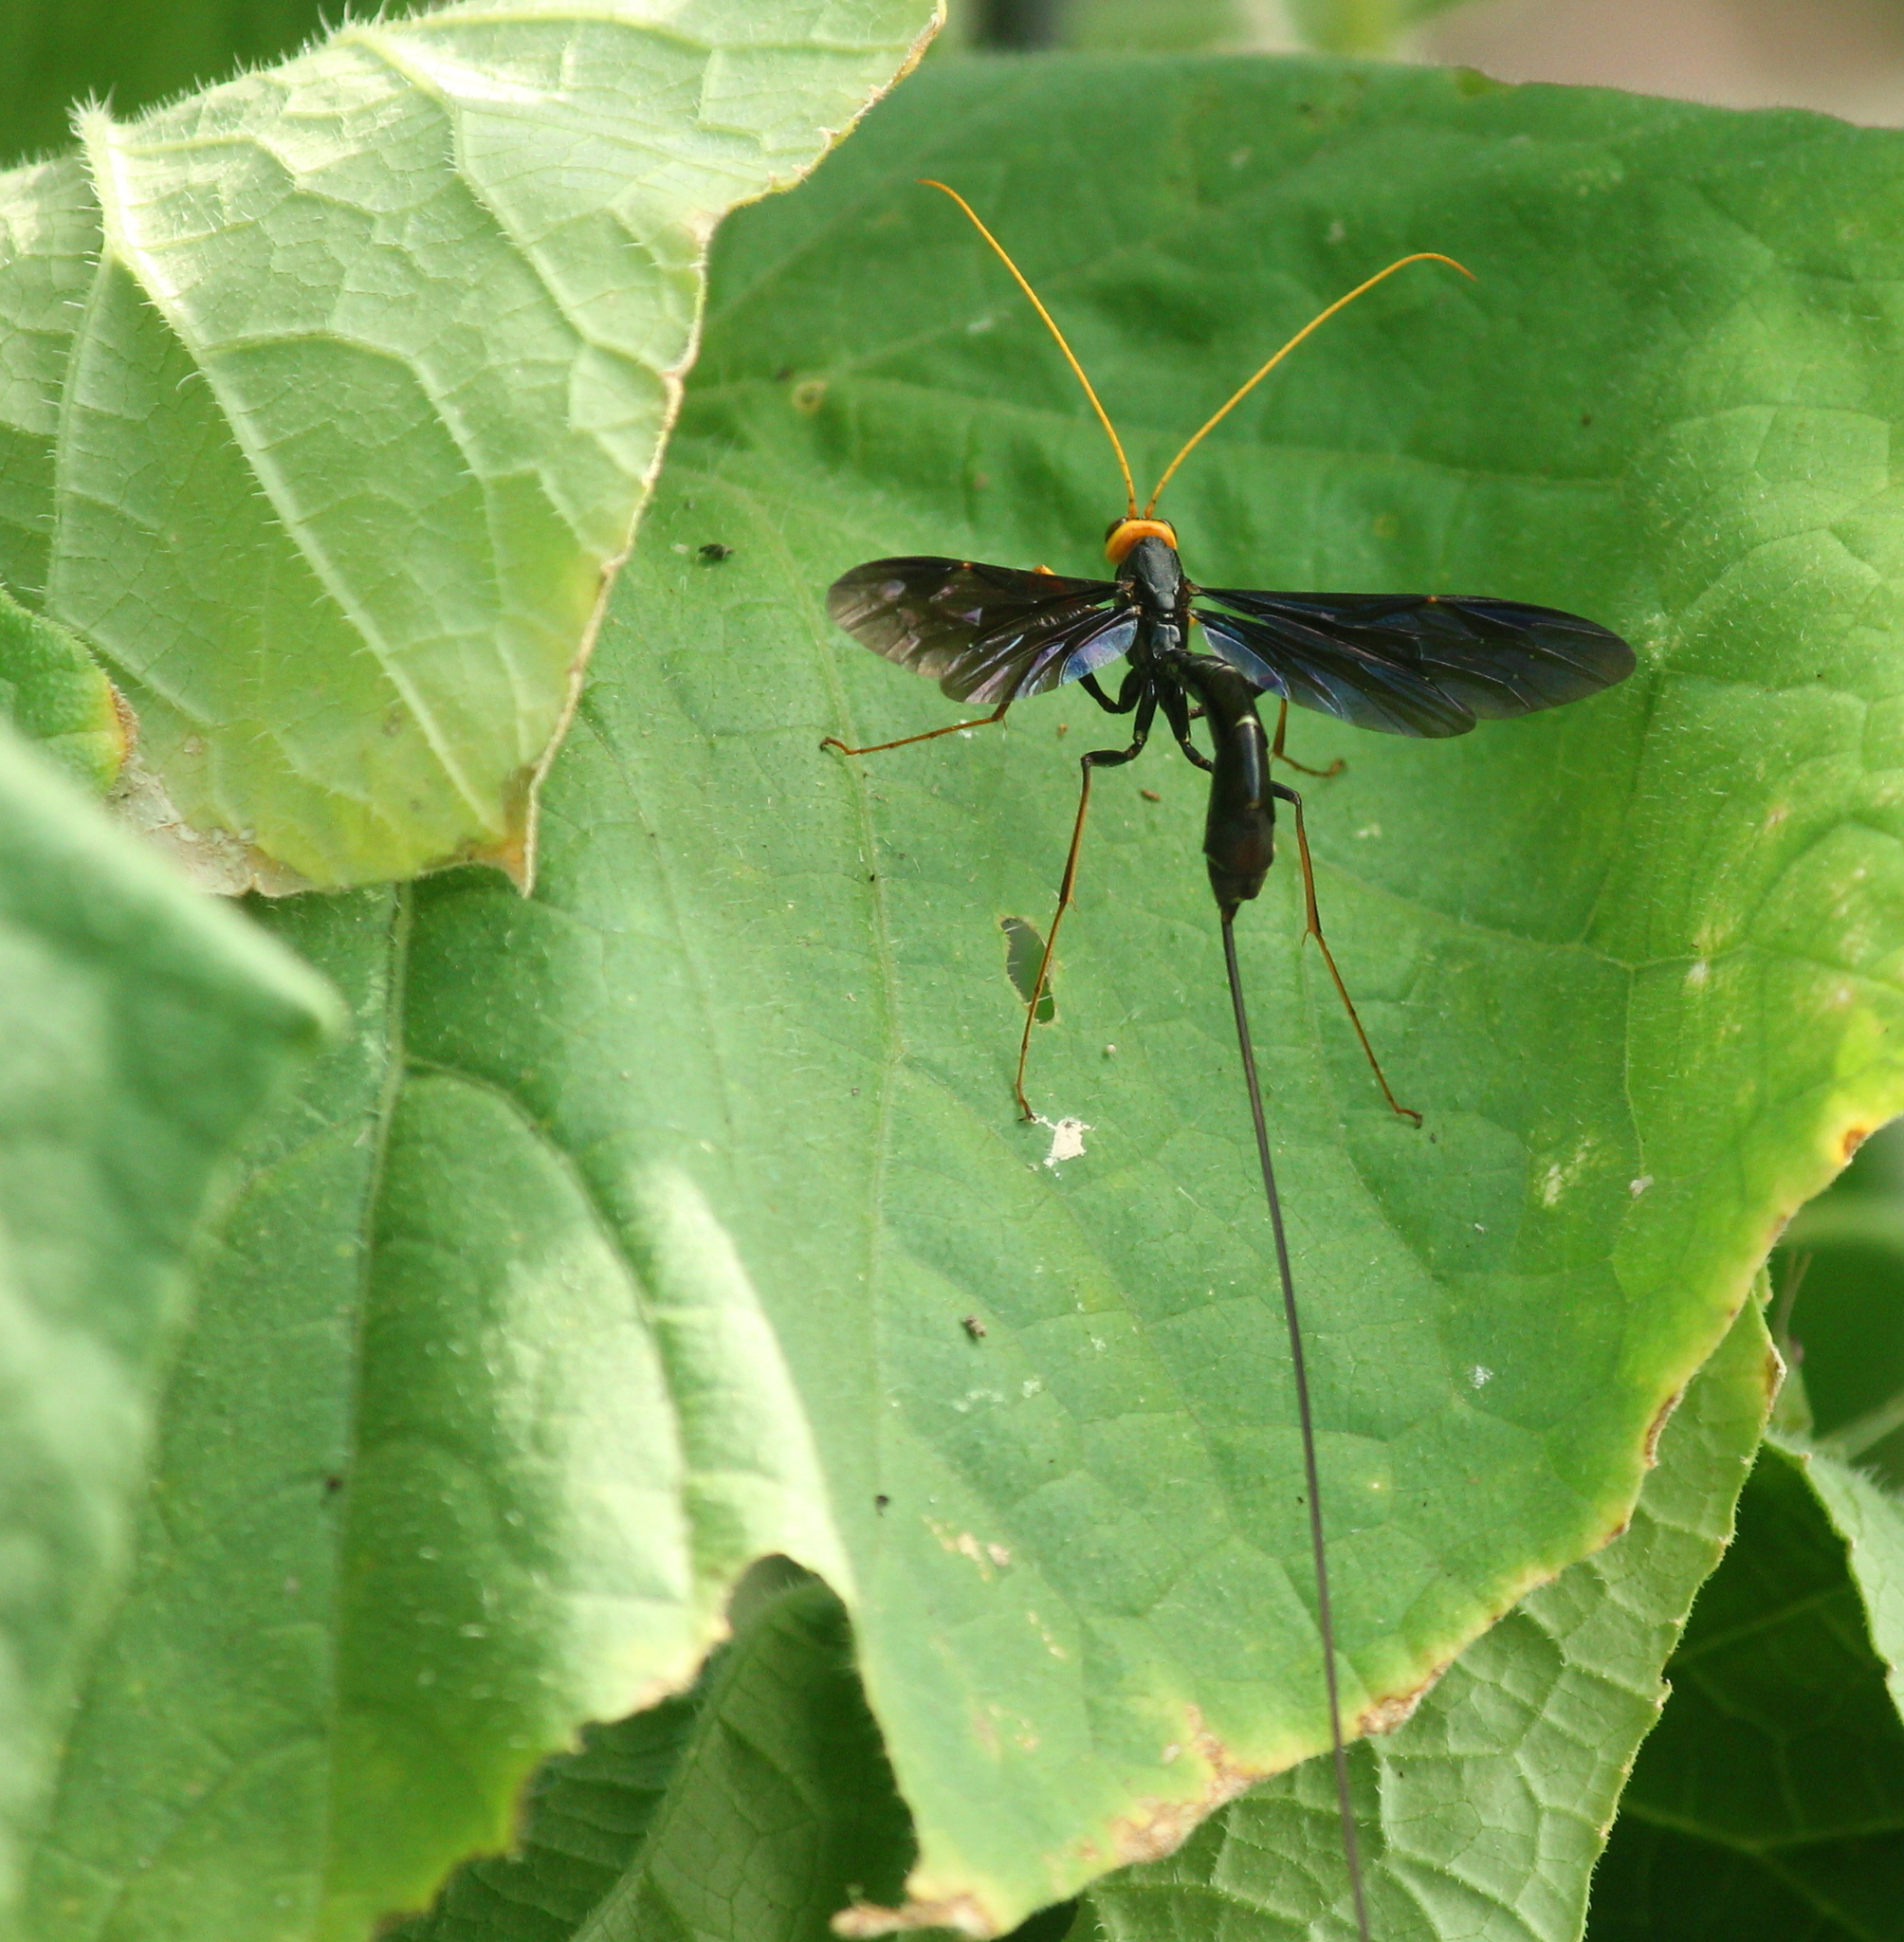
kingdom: Animalia
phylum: Arthropoda
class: Insecta
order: Hymenoptera
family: Ichneumonidae
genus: Megarhyssa
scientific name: Megarhyssa atrata
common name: Black giant ichneumonid wasp
